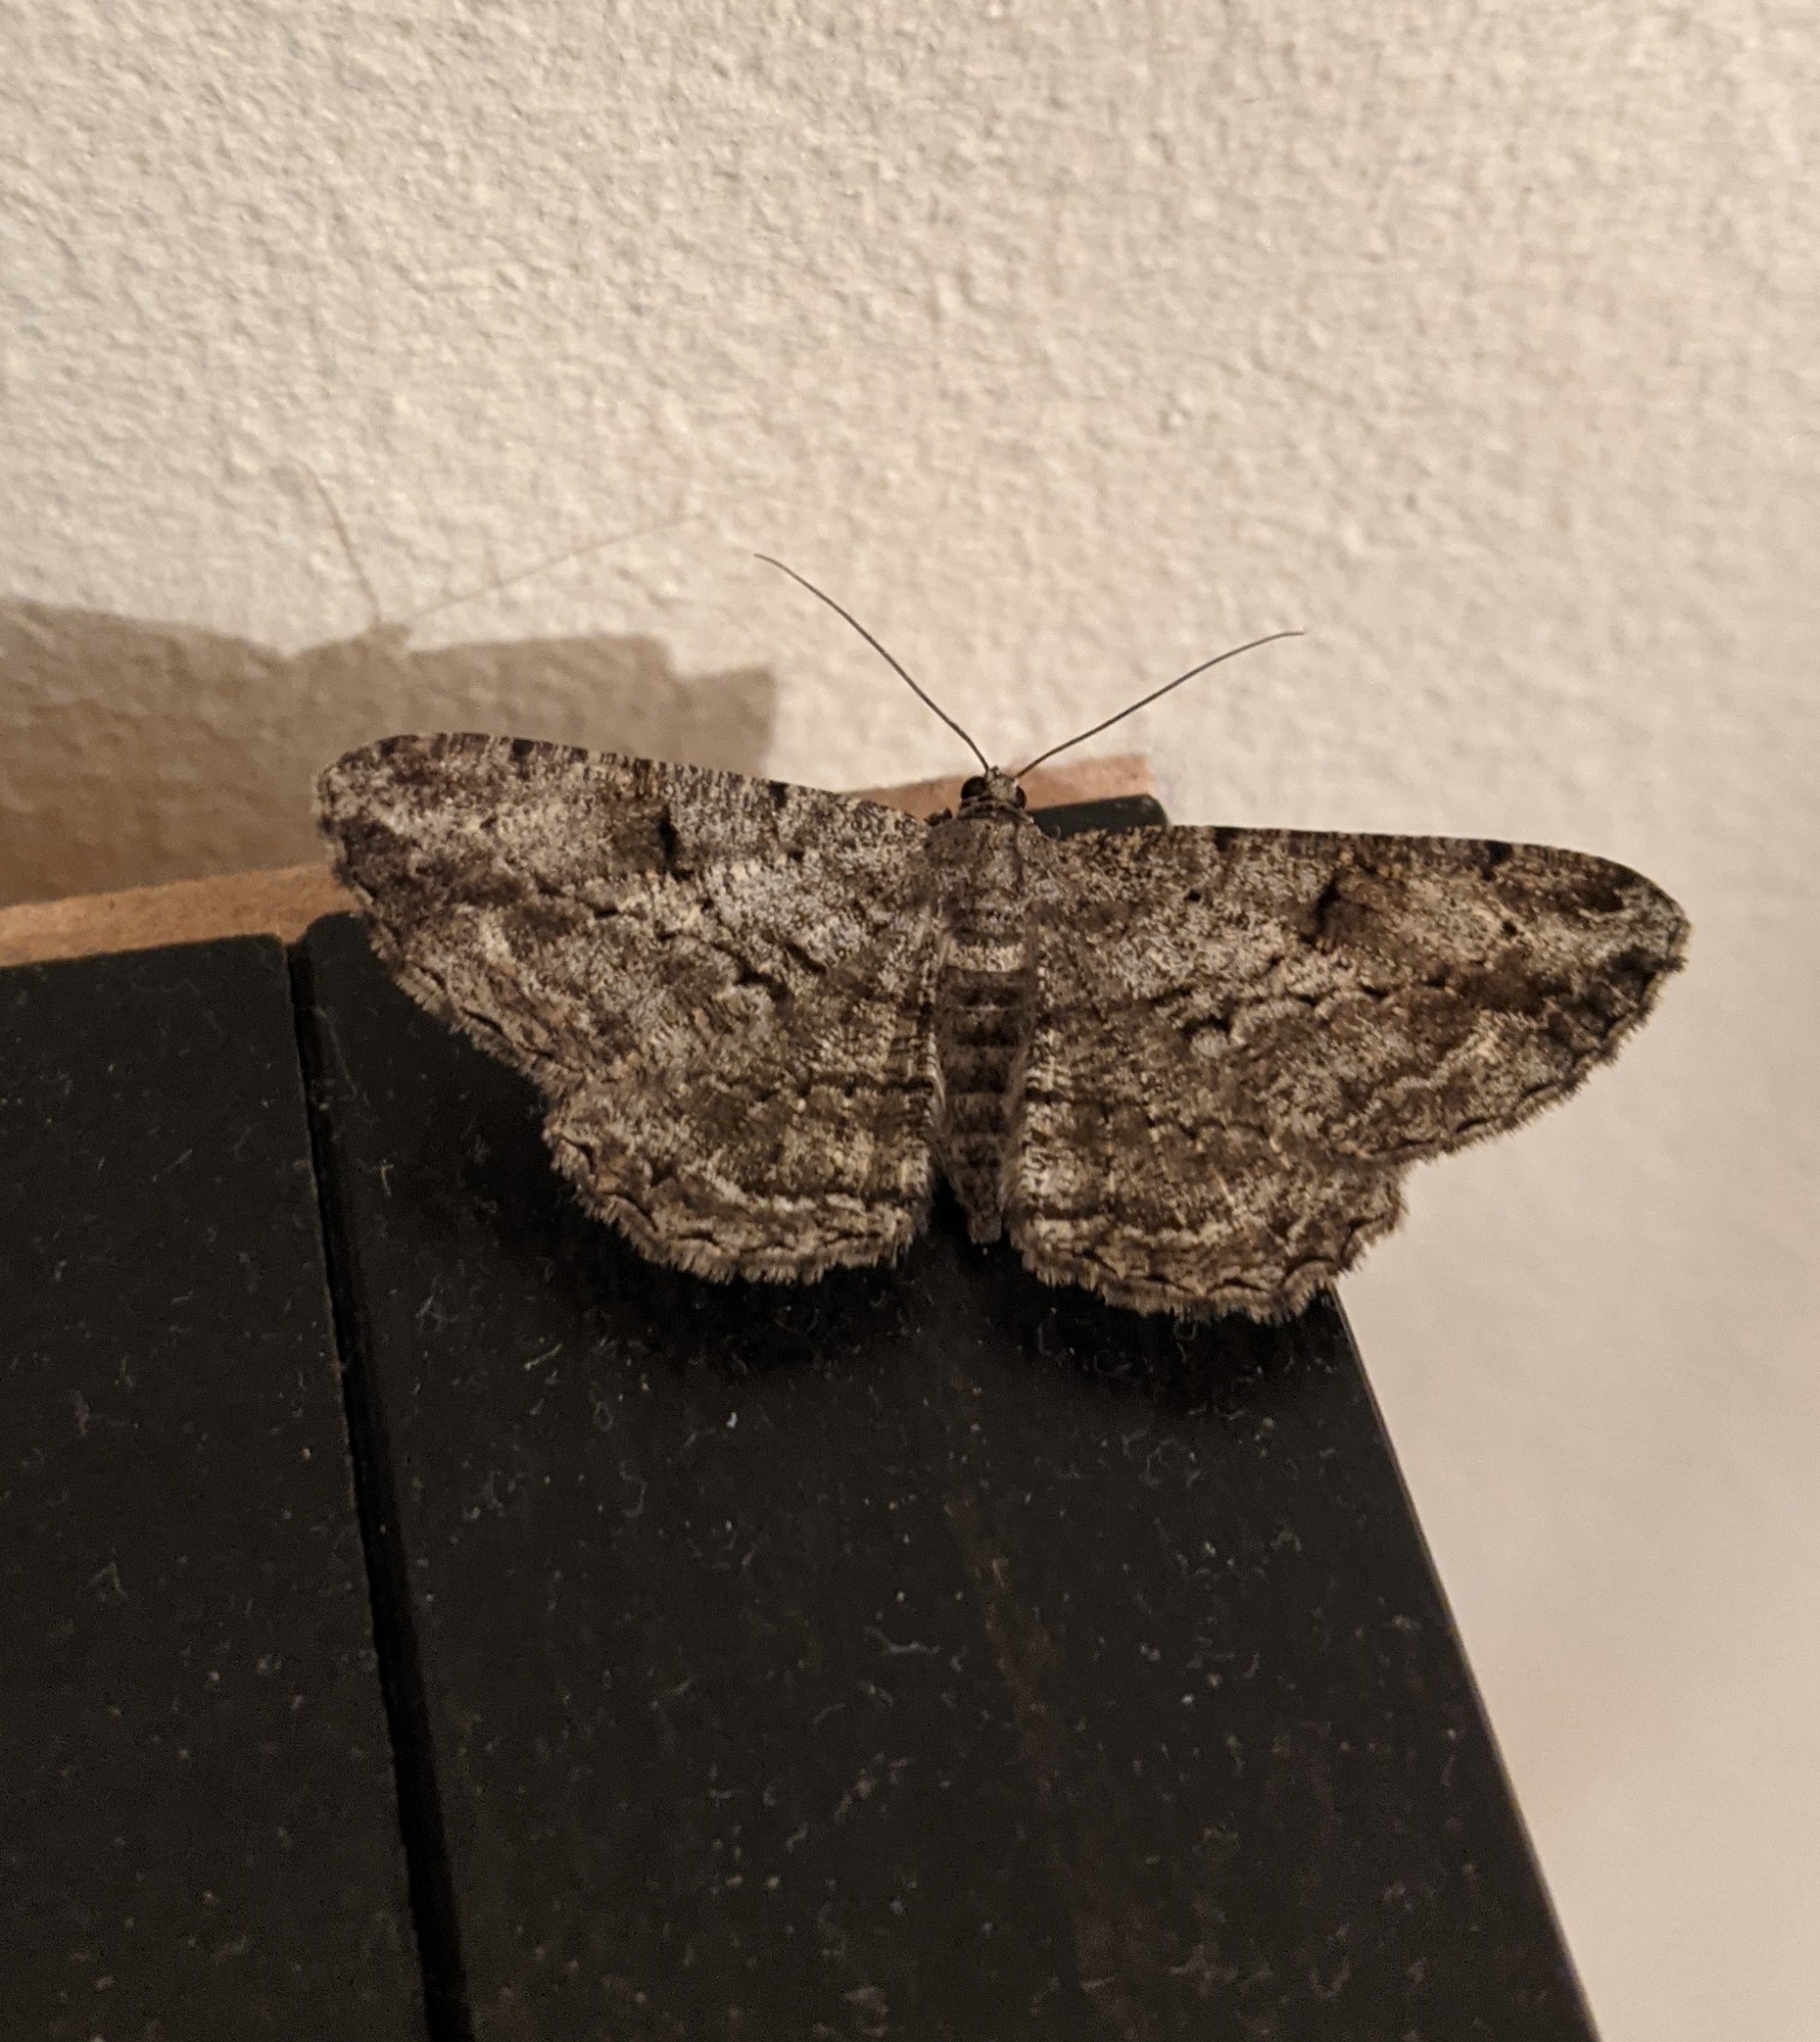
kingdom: Animalia
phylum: Arthropoda
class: Insecta
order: Lepidoptera
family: Geometridae
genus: Peribatodes
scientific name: Peribatodes rhomboidaria
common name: Willow beauty
